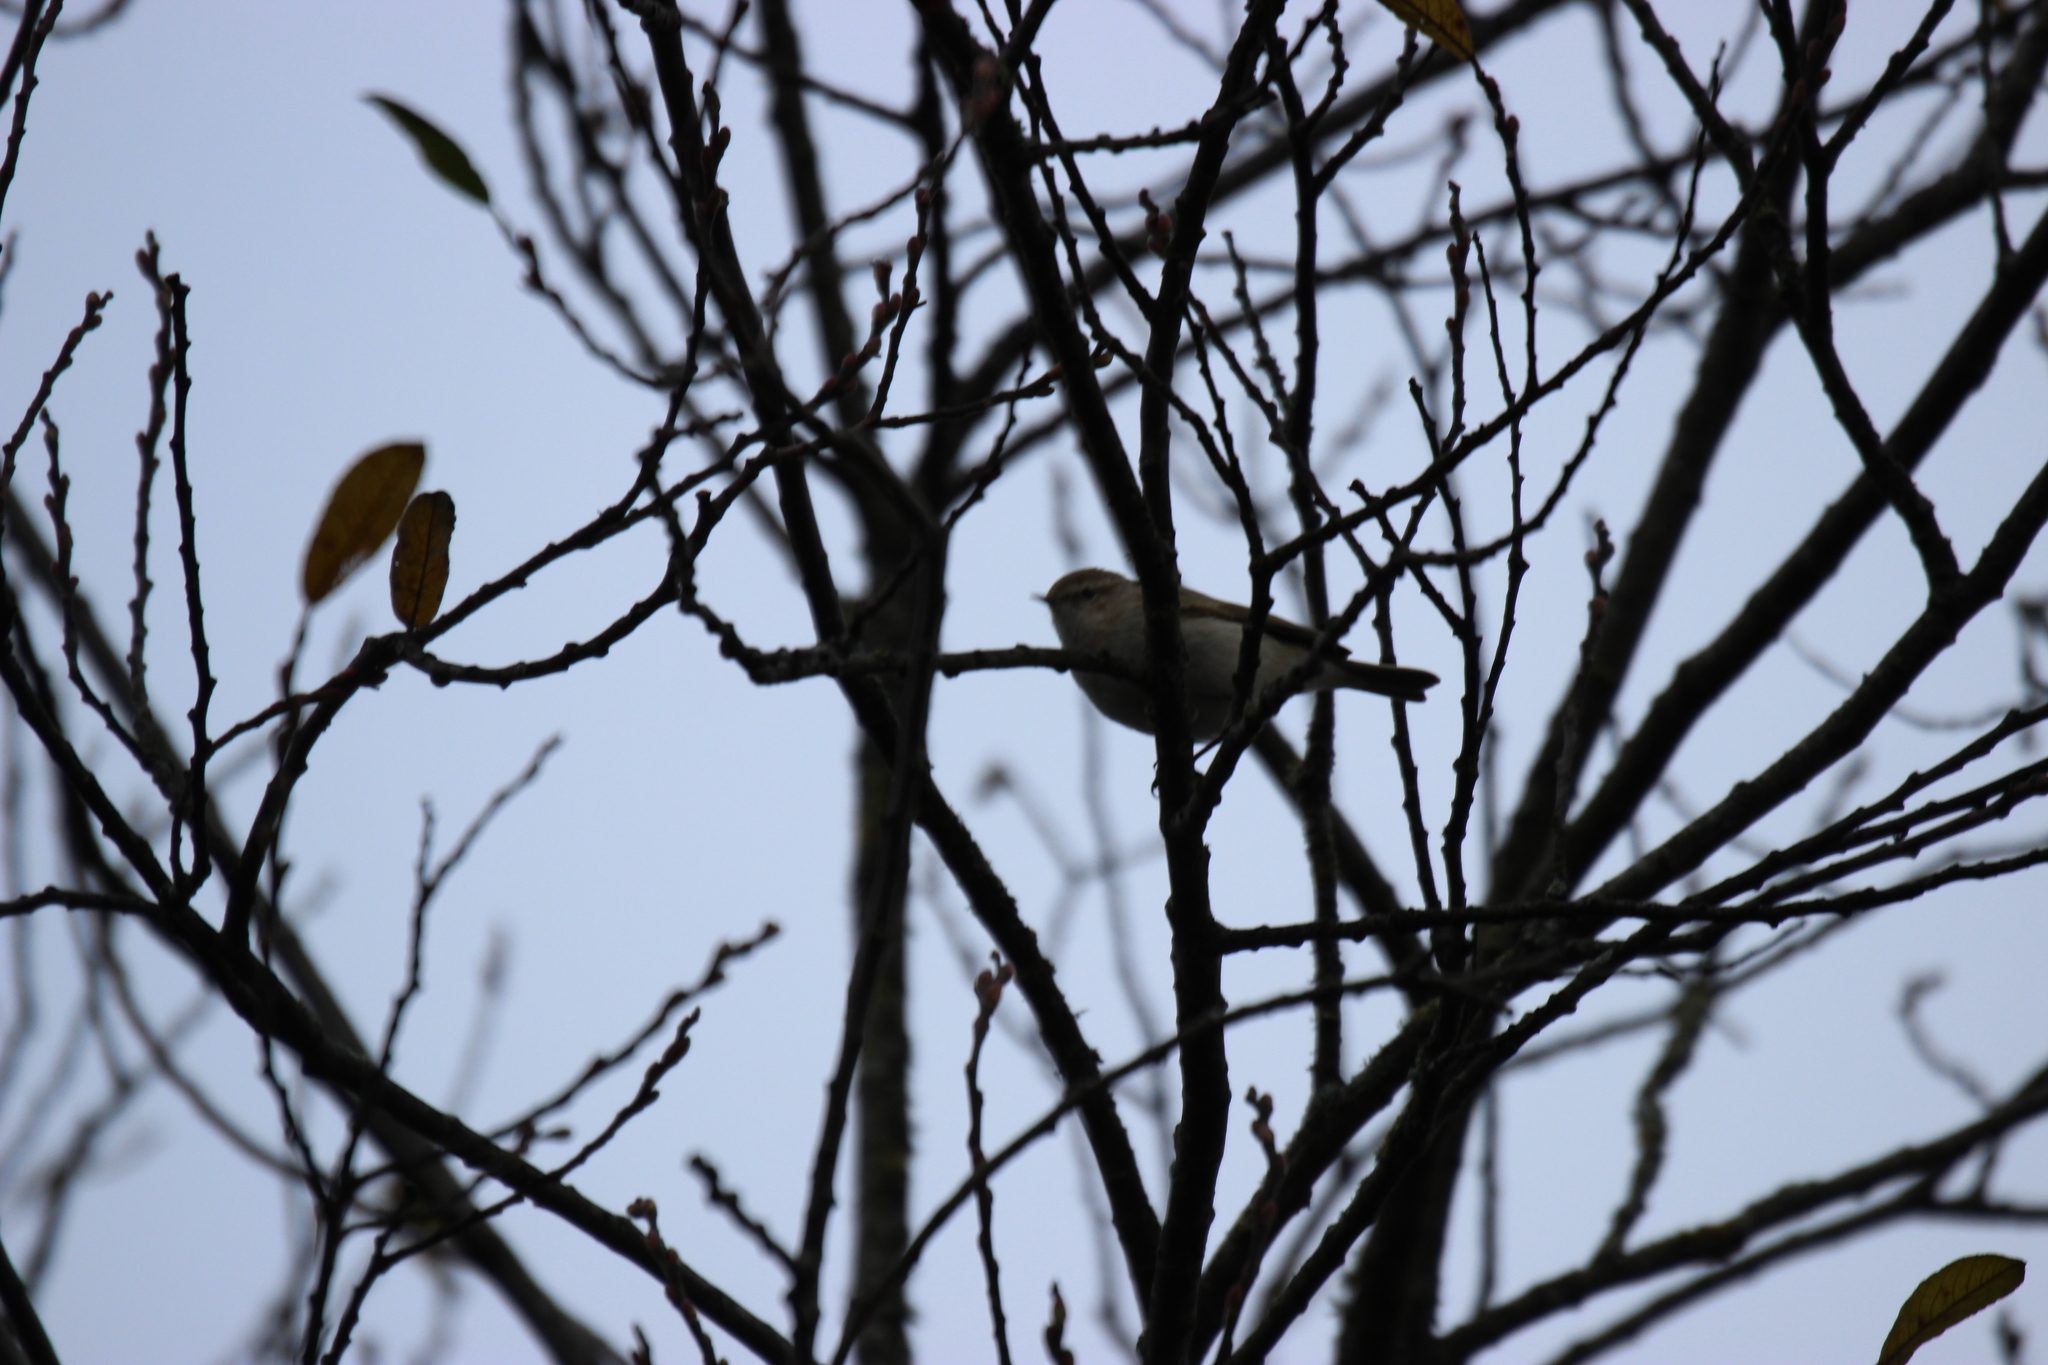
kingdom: Animalia
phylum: Chordata
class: Aves
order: Passeriformes
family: Phylloscopidae
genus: Phylloscopus
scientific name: Phylloscopus collybita
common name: Common chiffchaff
